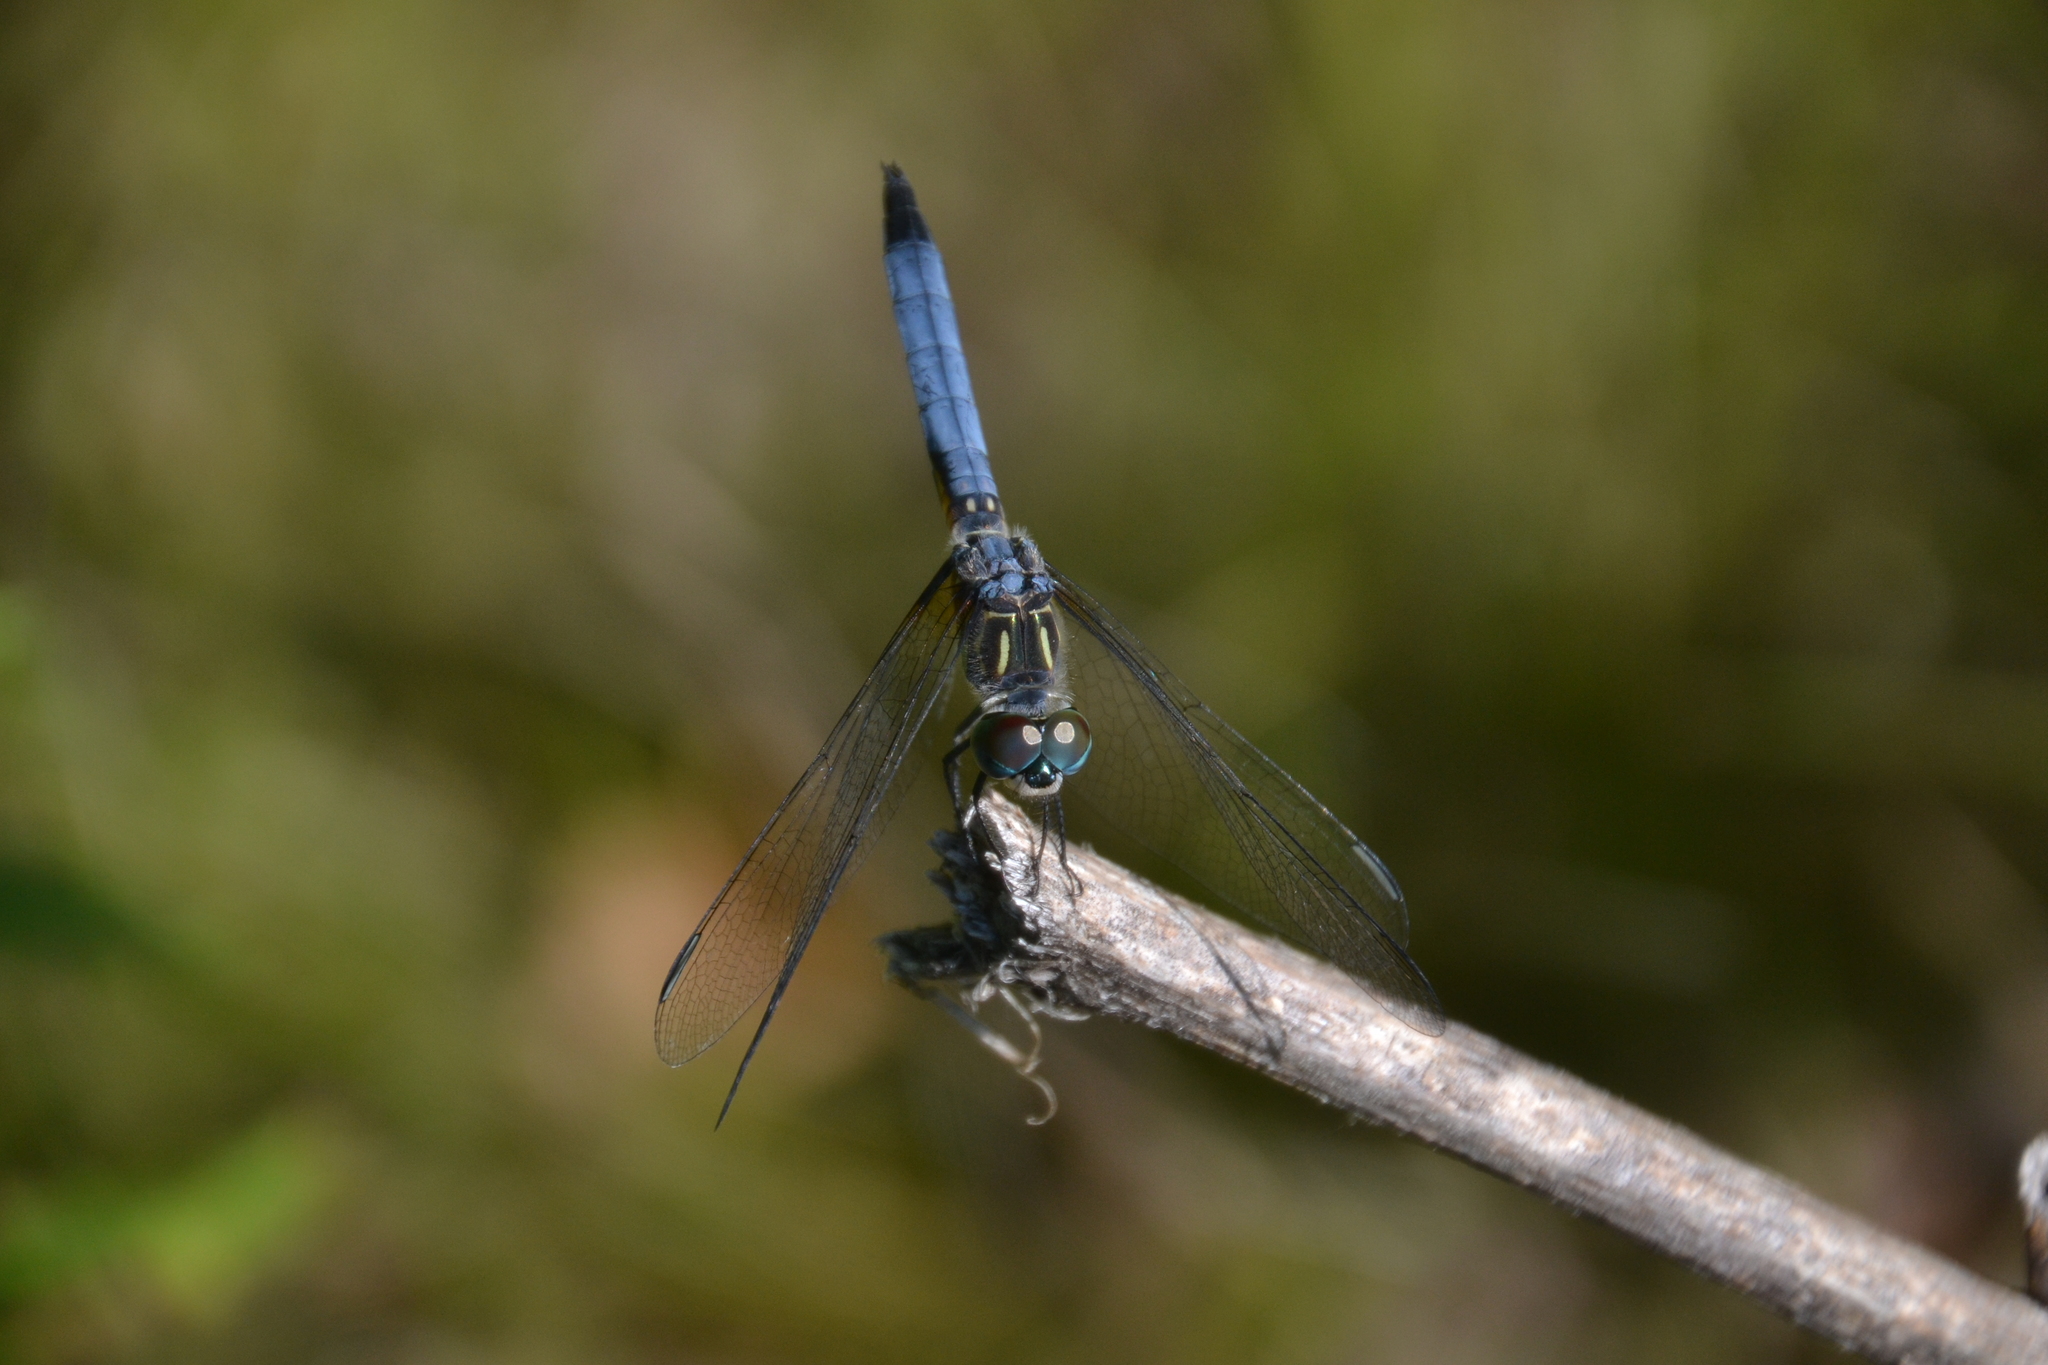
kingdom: Animalia
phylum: Arthropoda
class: Insecta
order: Odonata
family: Libellulidae
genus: Pachydiplax
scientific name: Pachydiplax longipennis
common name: Blue dasher
